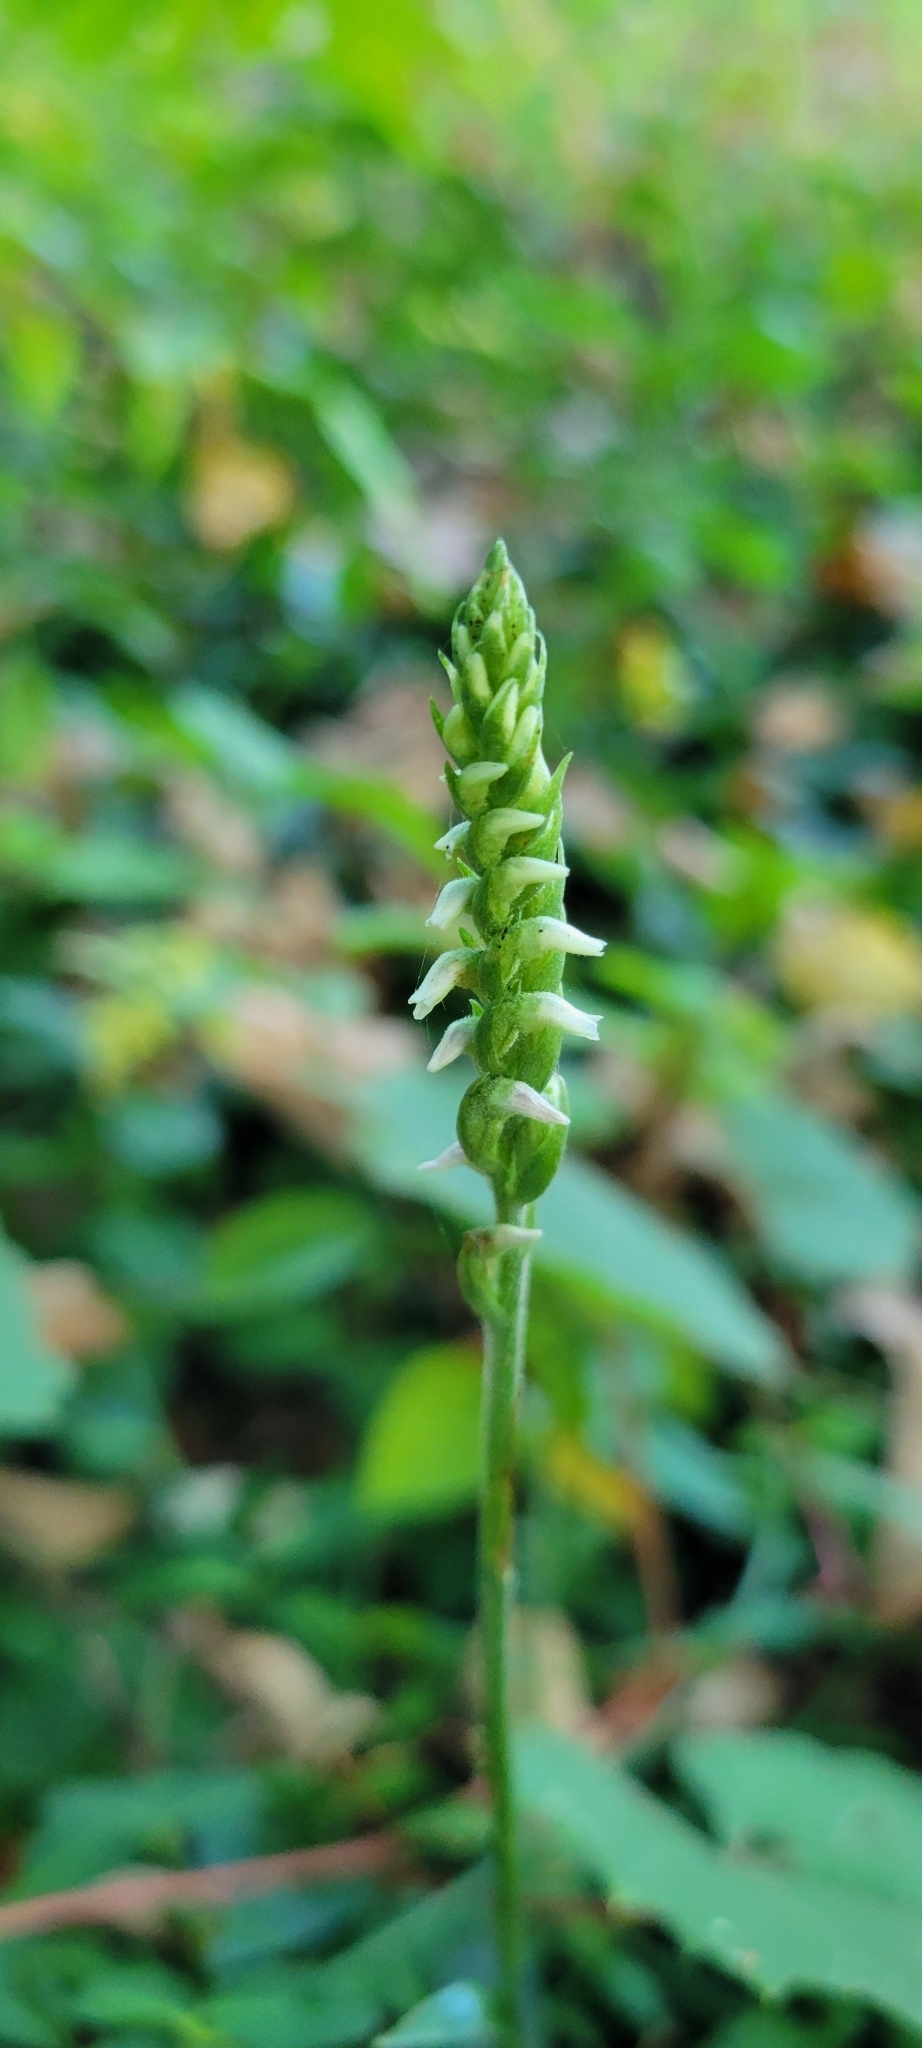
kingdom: Plantae
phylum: Tracheophyta
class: Liliopsida
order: Asparagales
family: Orchidaceae
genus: Spiranthes
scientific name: Spiranthes ovalis
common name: October ladies'-tresses
